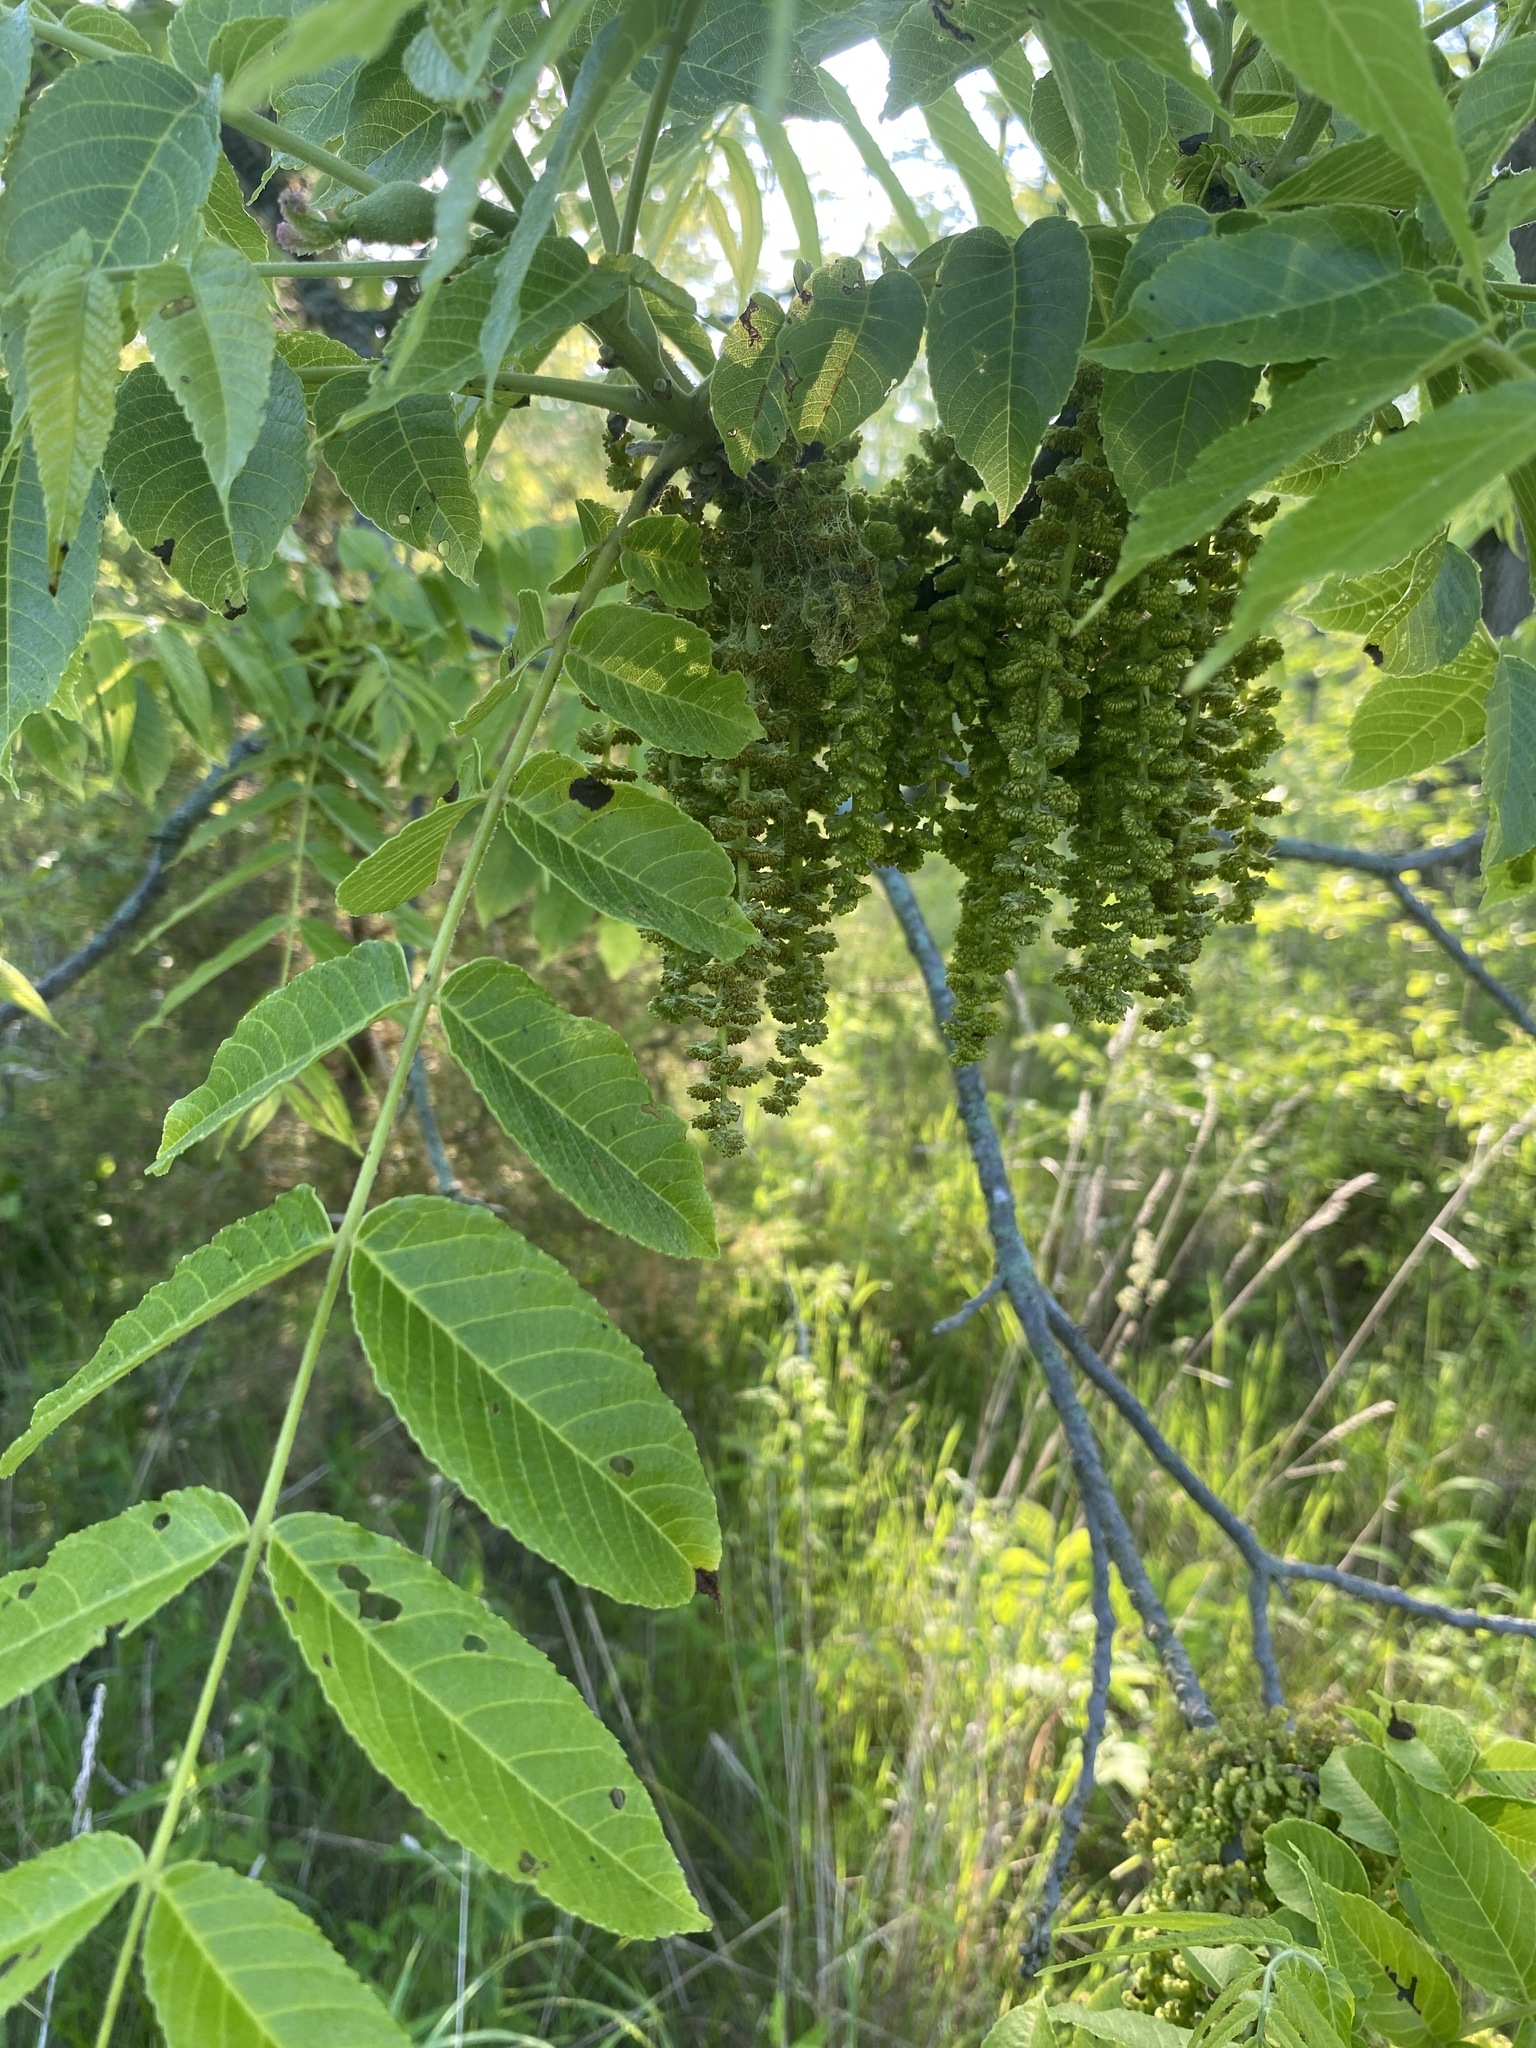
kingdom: Plantae
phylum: Tracheophyta
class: Magnoliopsida
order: Fagales
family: Juglandaceae
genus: Juglans
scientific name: Juglans nigra
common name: Black walnut
